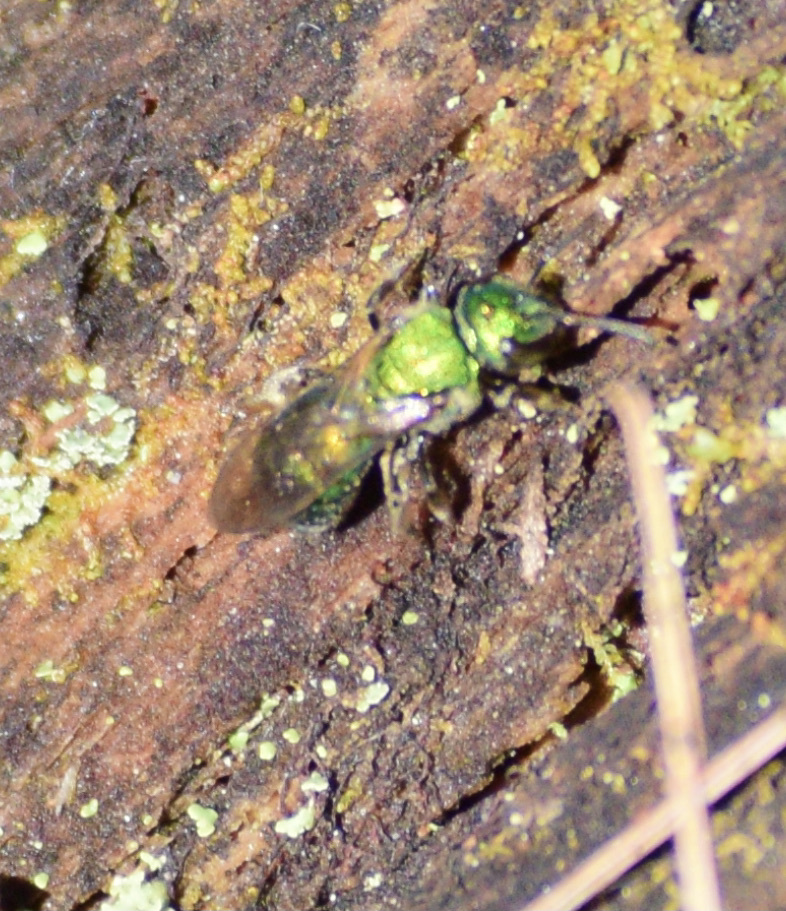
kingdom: Animalia
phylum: Arthropoda
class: Insecta
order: Hymenoptera
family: Halictidae
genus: Augochlora
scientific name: Augochlora pura
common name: Pure green sweat bee
